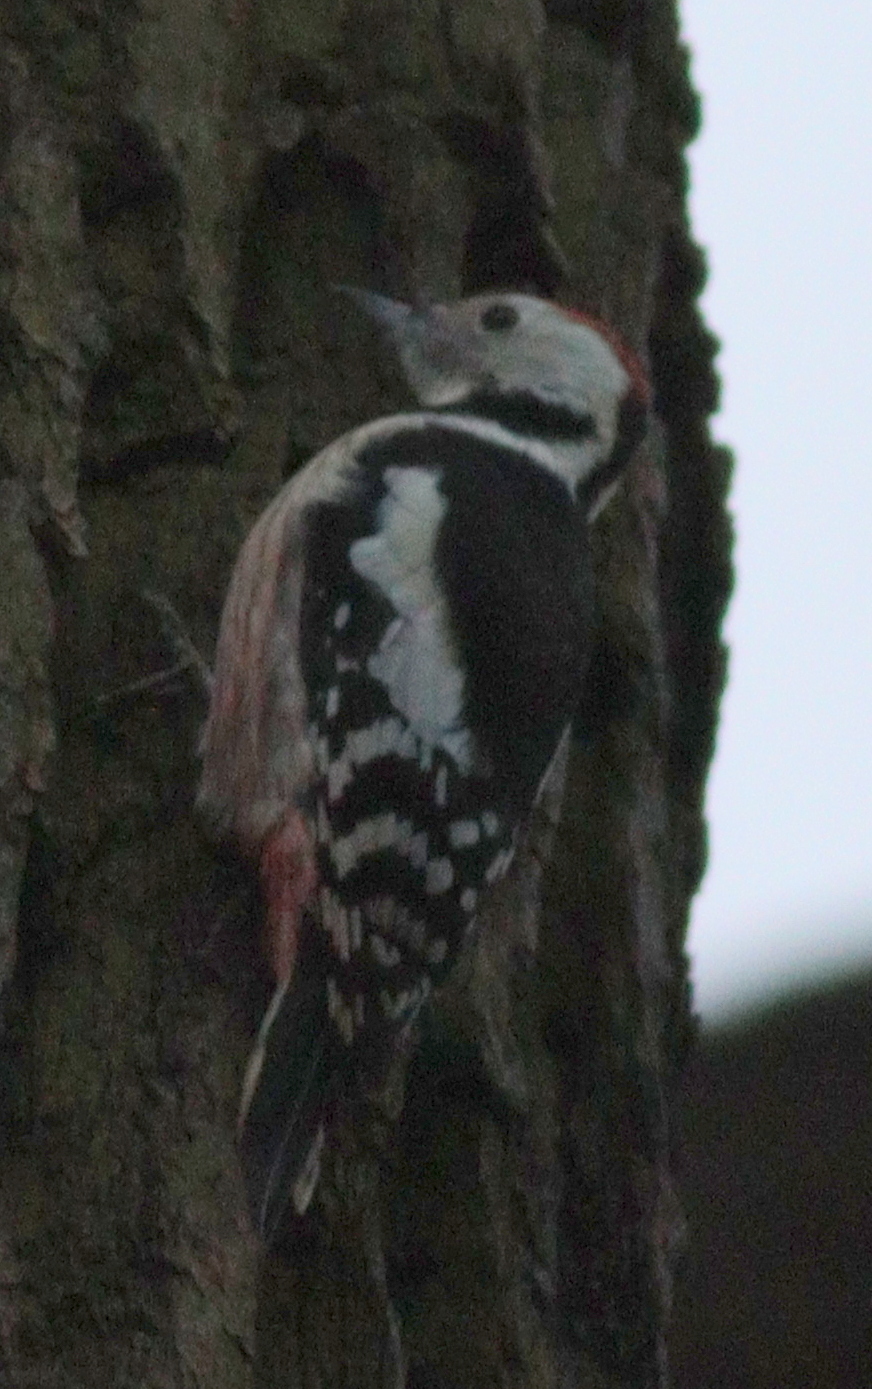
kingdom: Animalia
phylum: Chordata
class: Aves
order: Piciformes
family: Picidae
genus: Dendrocoptes
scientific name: Dendrocoptes medius
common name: Middle spotted woodpecker
